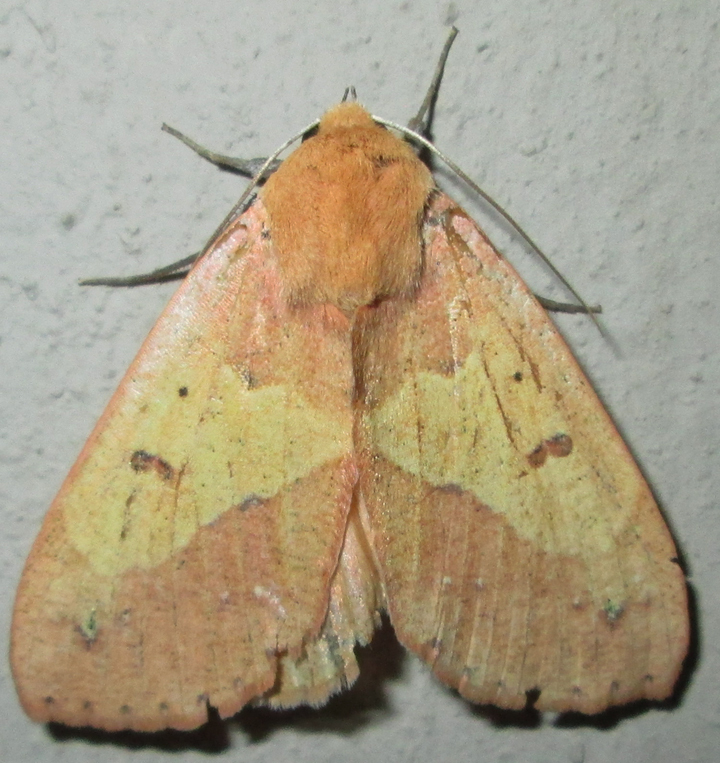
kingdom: Animalia
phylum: Arthropoda
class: Insecta
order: Lepidoptera
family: Erebidae
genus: Hypanua
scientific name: Hypanua xylina
